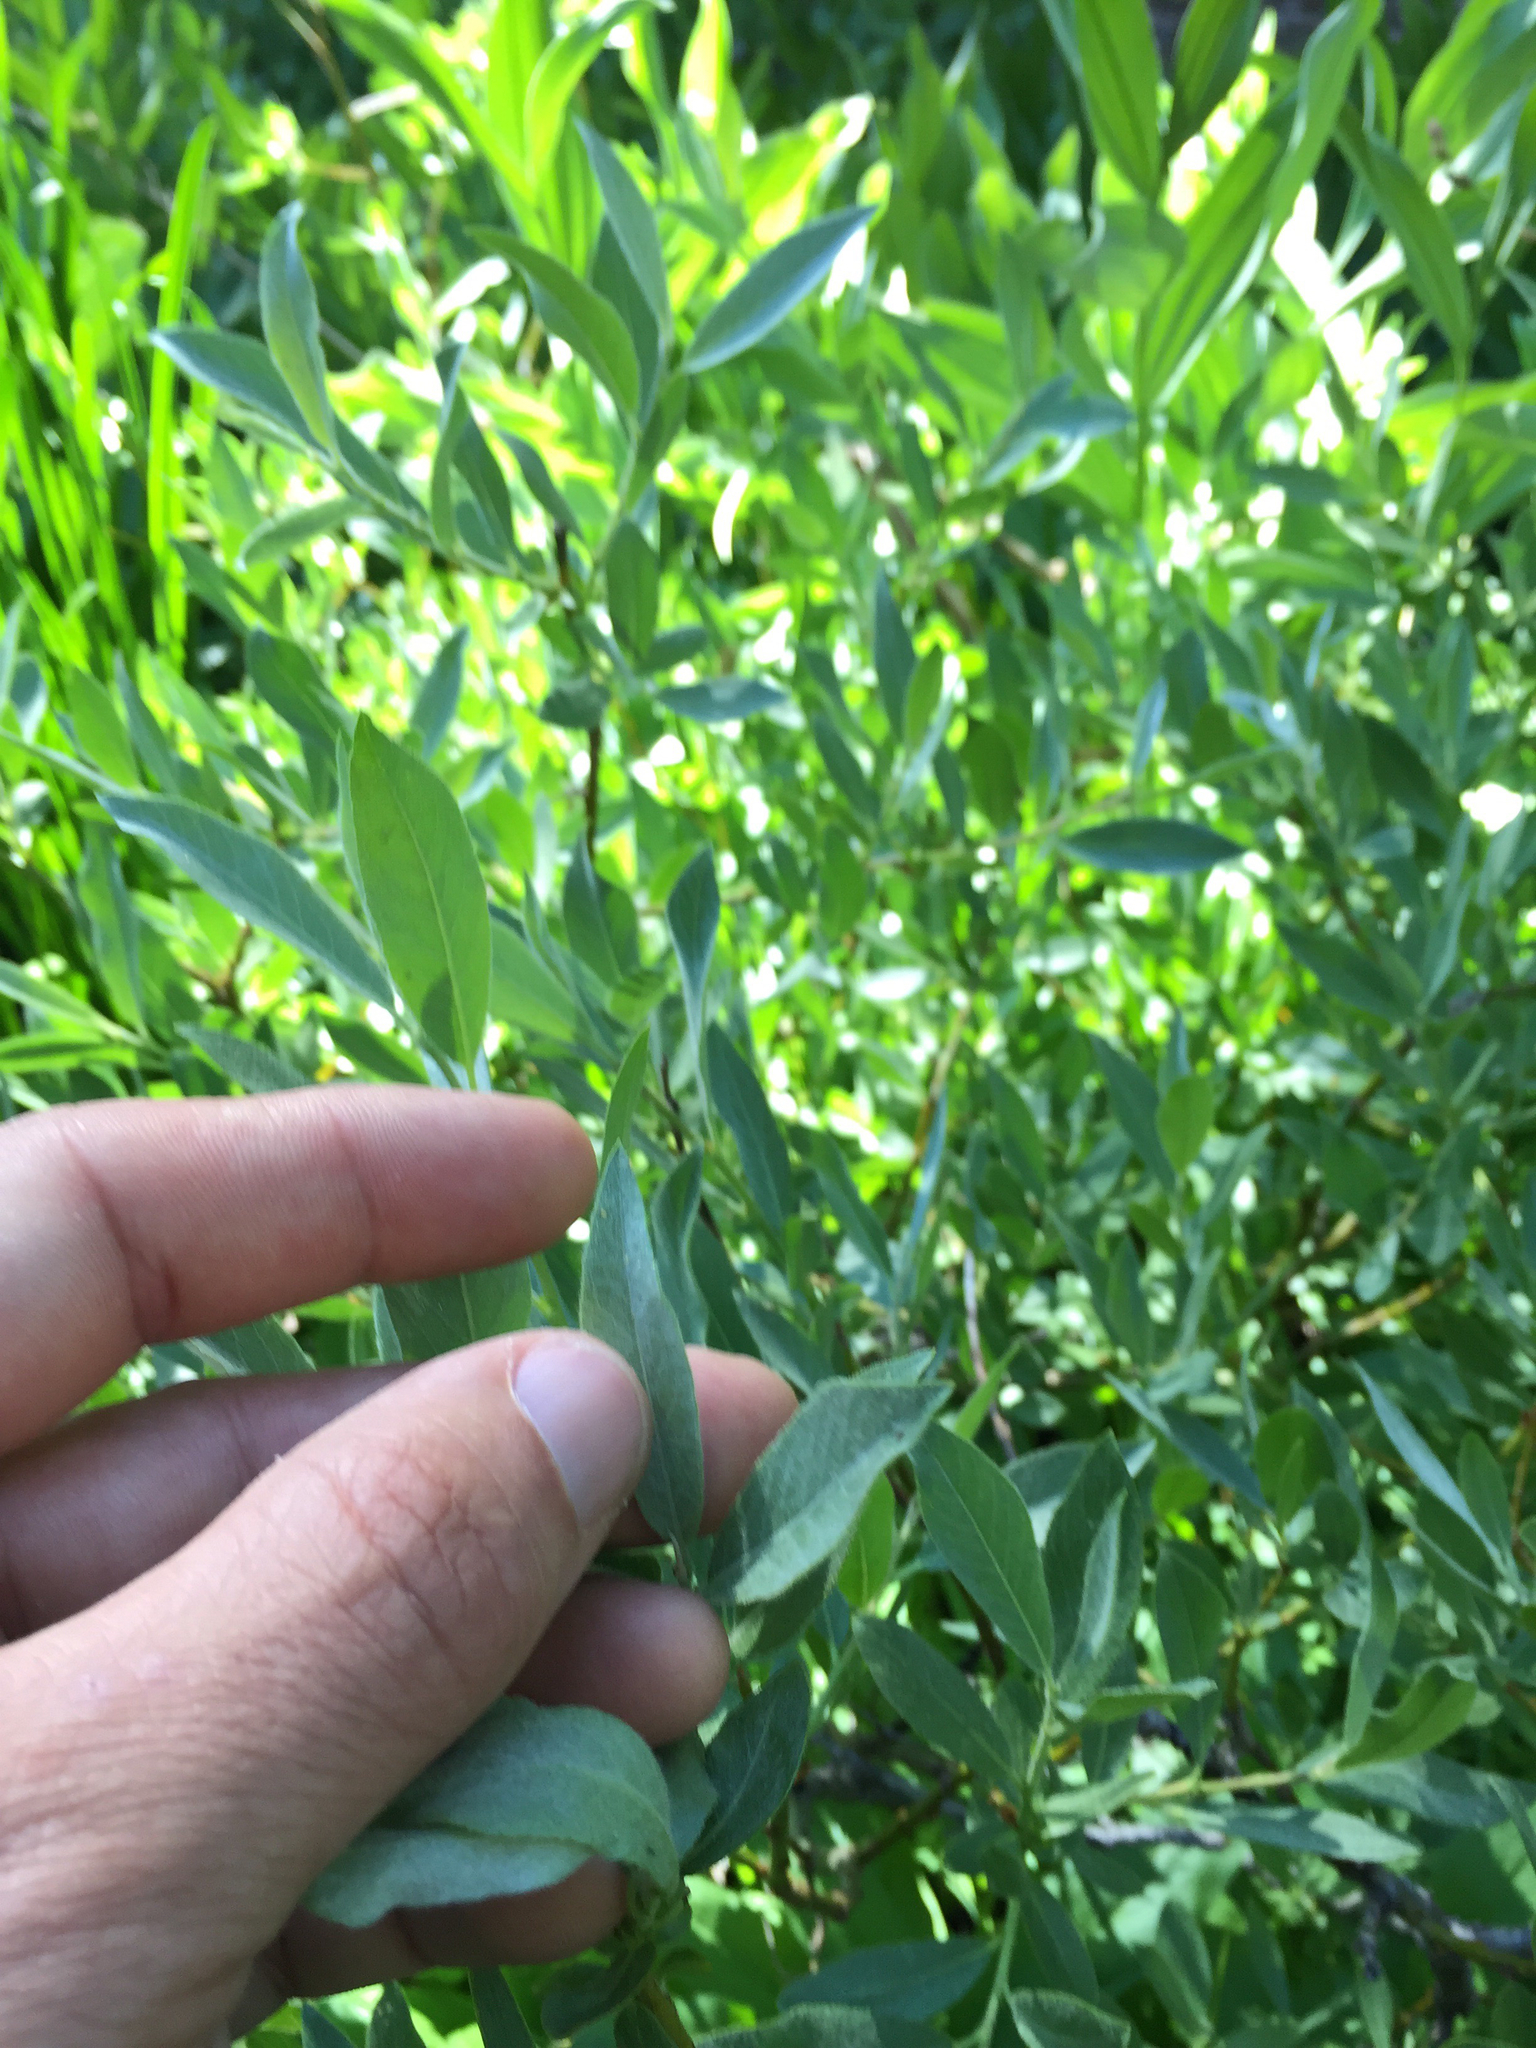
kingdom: Plantae
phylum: Tracheophyta
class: Magnoliopsida
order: Malpighiales
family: Salicaceae
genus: Salix
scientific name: Salix eastwoodiae
